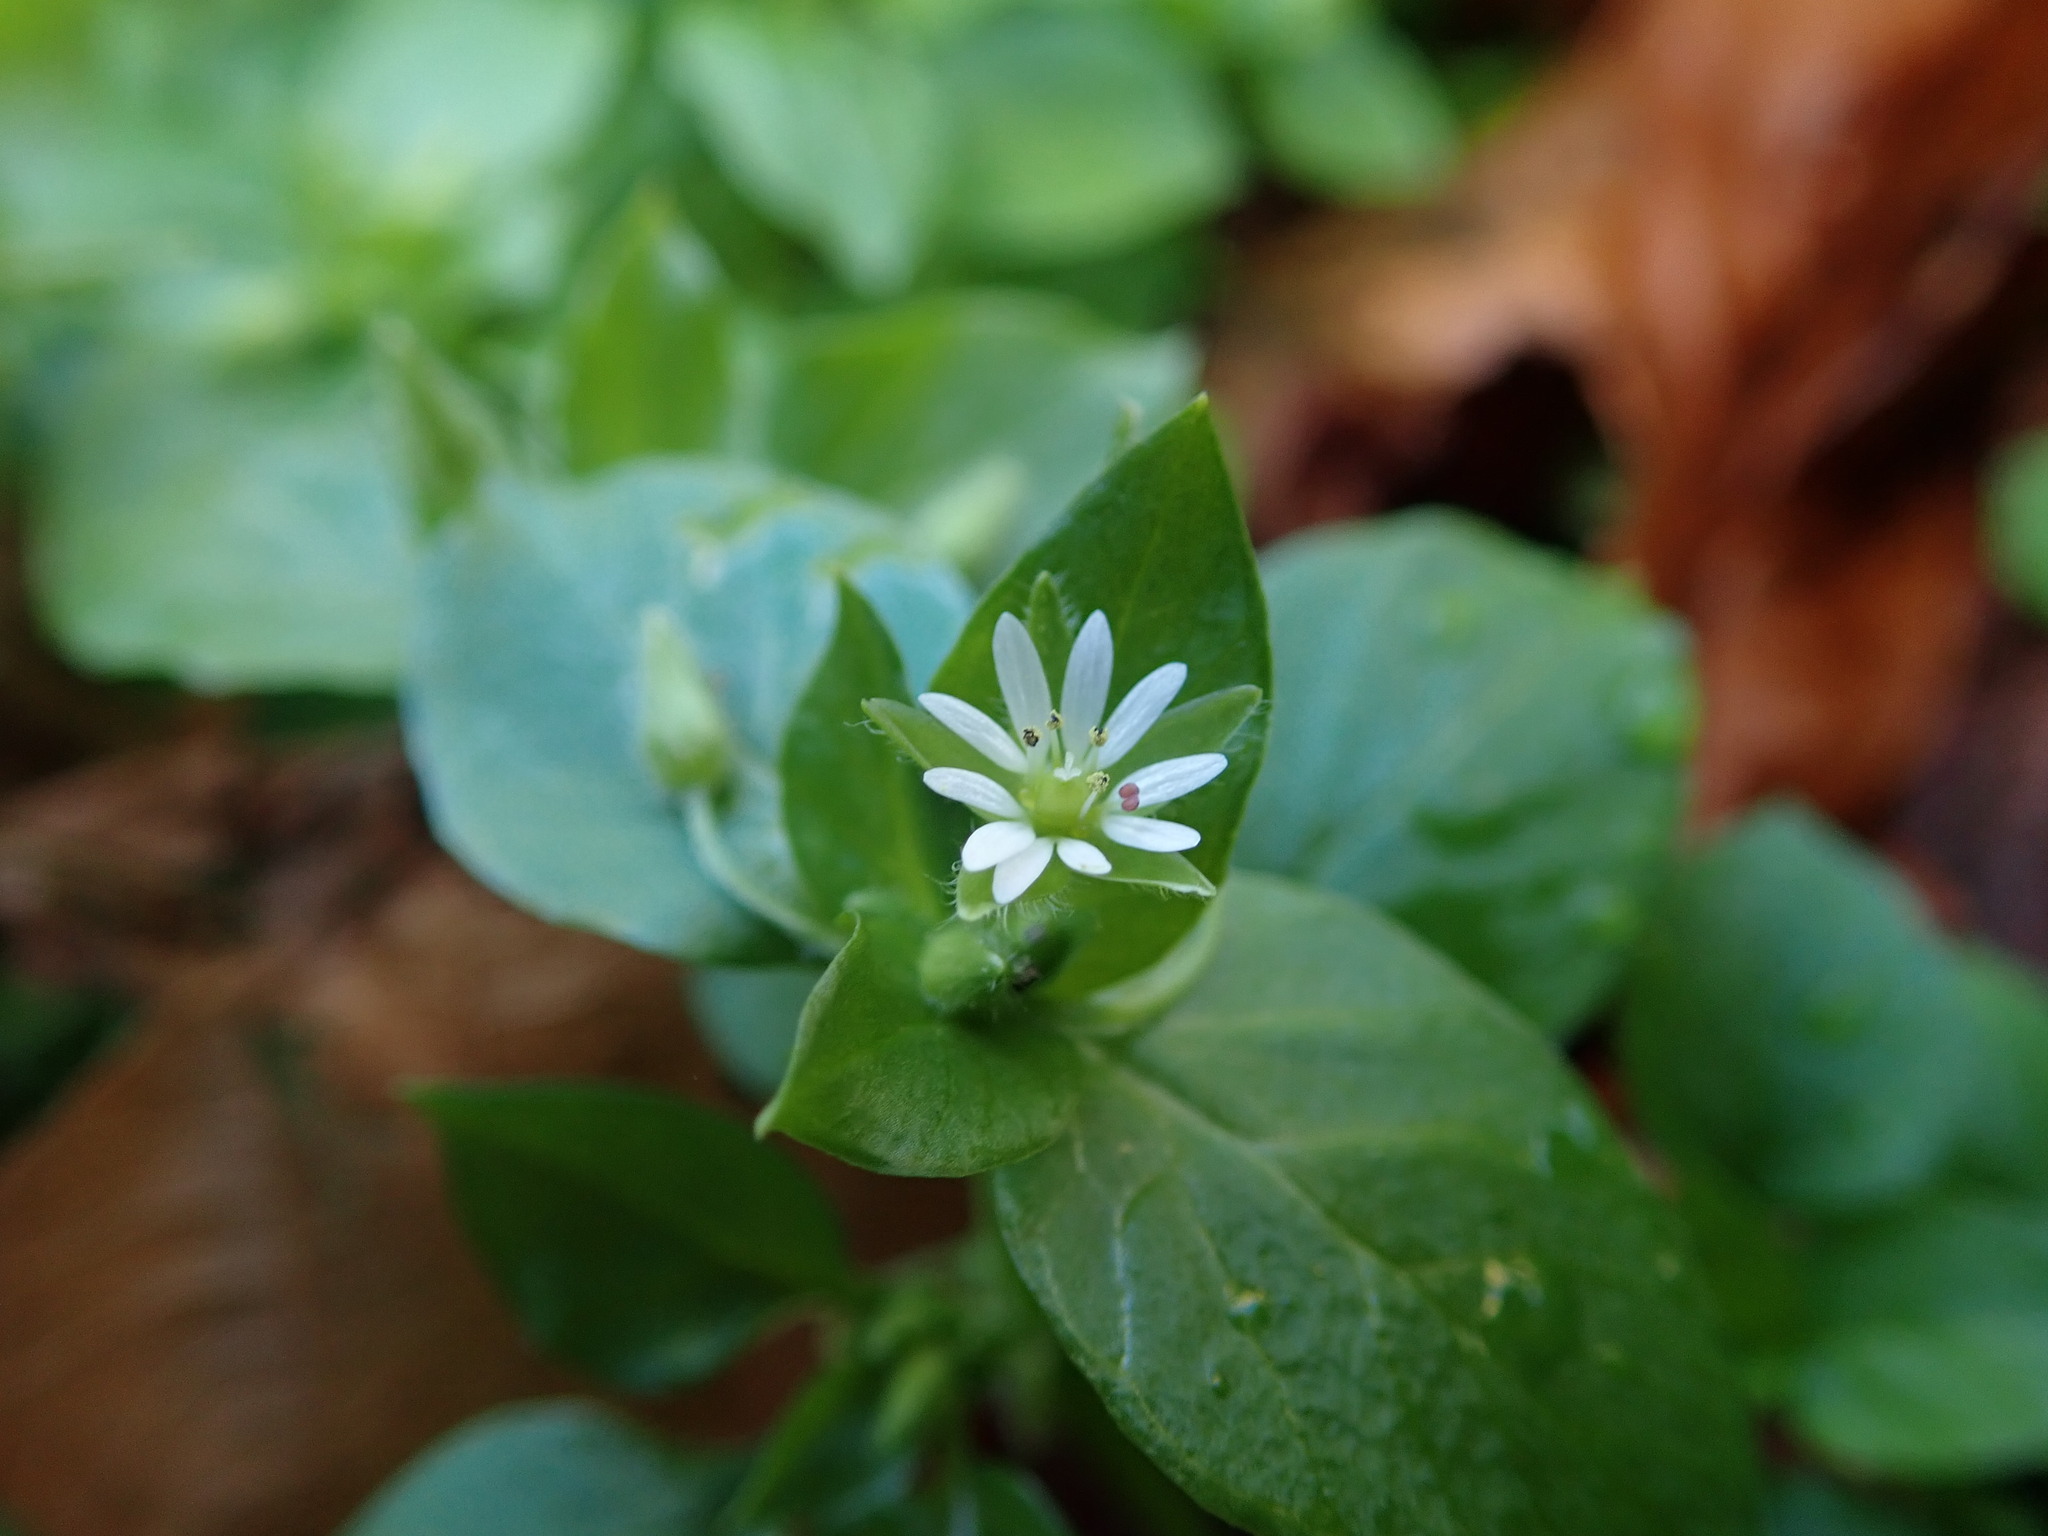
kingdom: Plantae
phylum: Tracheophyta
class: Magnoliopsida
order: Caryophyllales
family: Caryophyllaceae
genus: Stellaria
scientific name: Stellaria media
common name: Common chickweed
